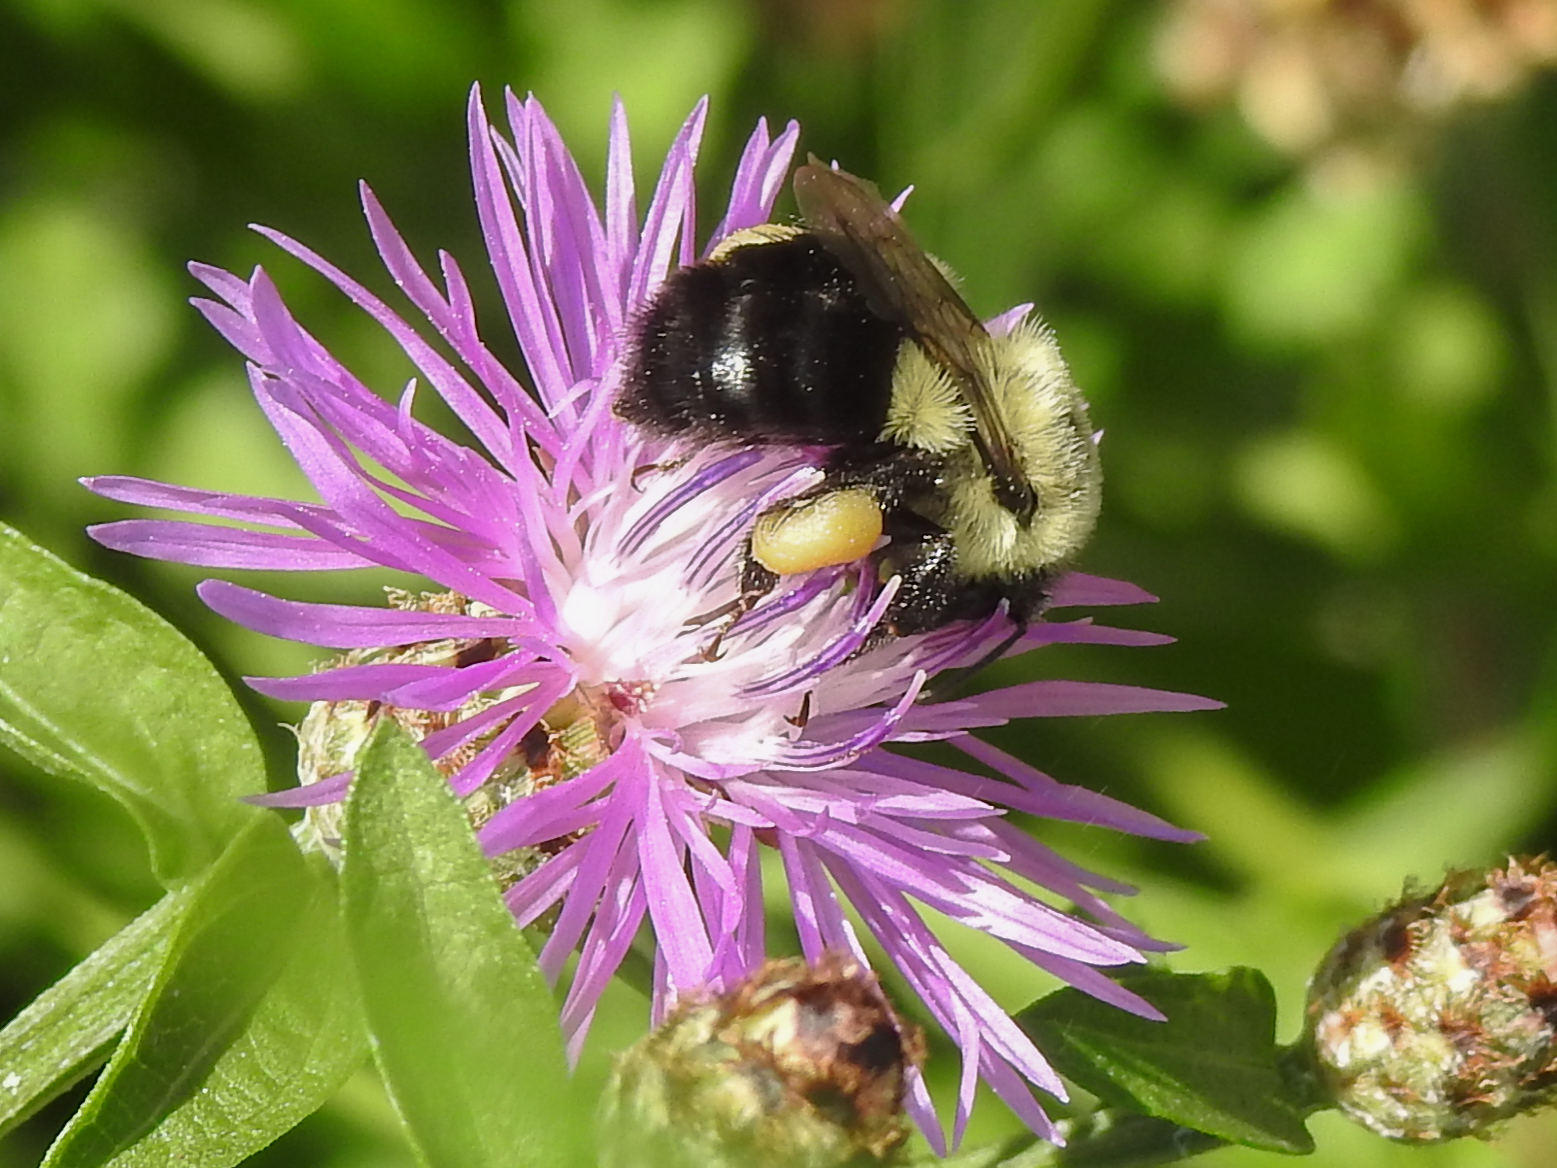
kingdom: Animalia
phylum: Arthropoda
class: Insecta
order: Hymenoptera
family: Apidae
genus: Bombus
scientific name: Bombus impatiens
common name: Common eastern bumble bee
